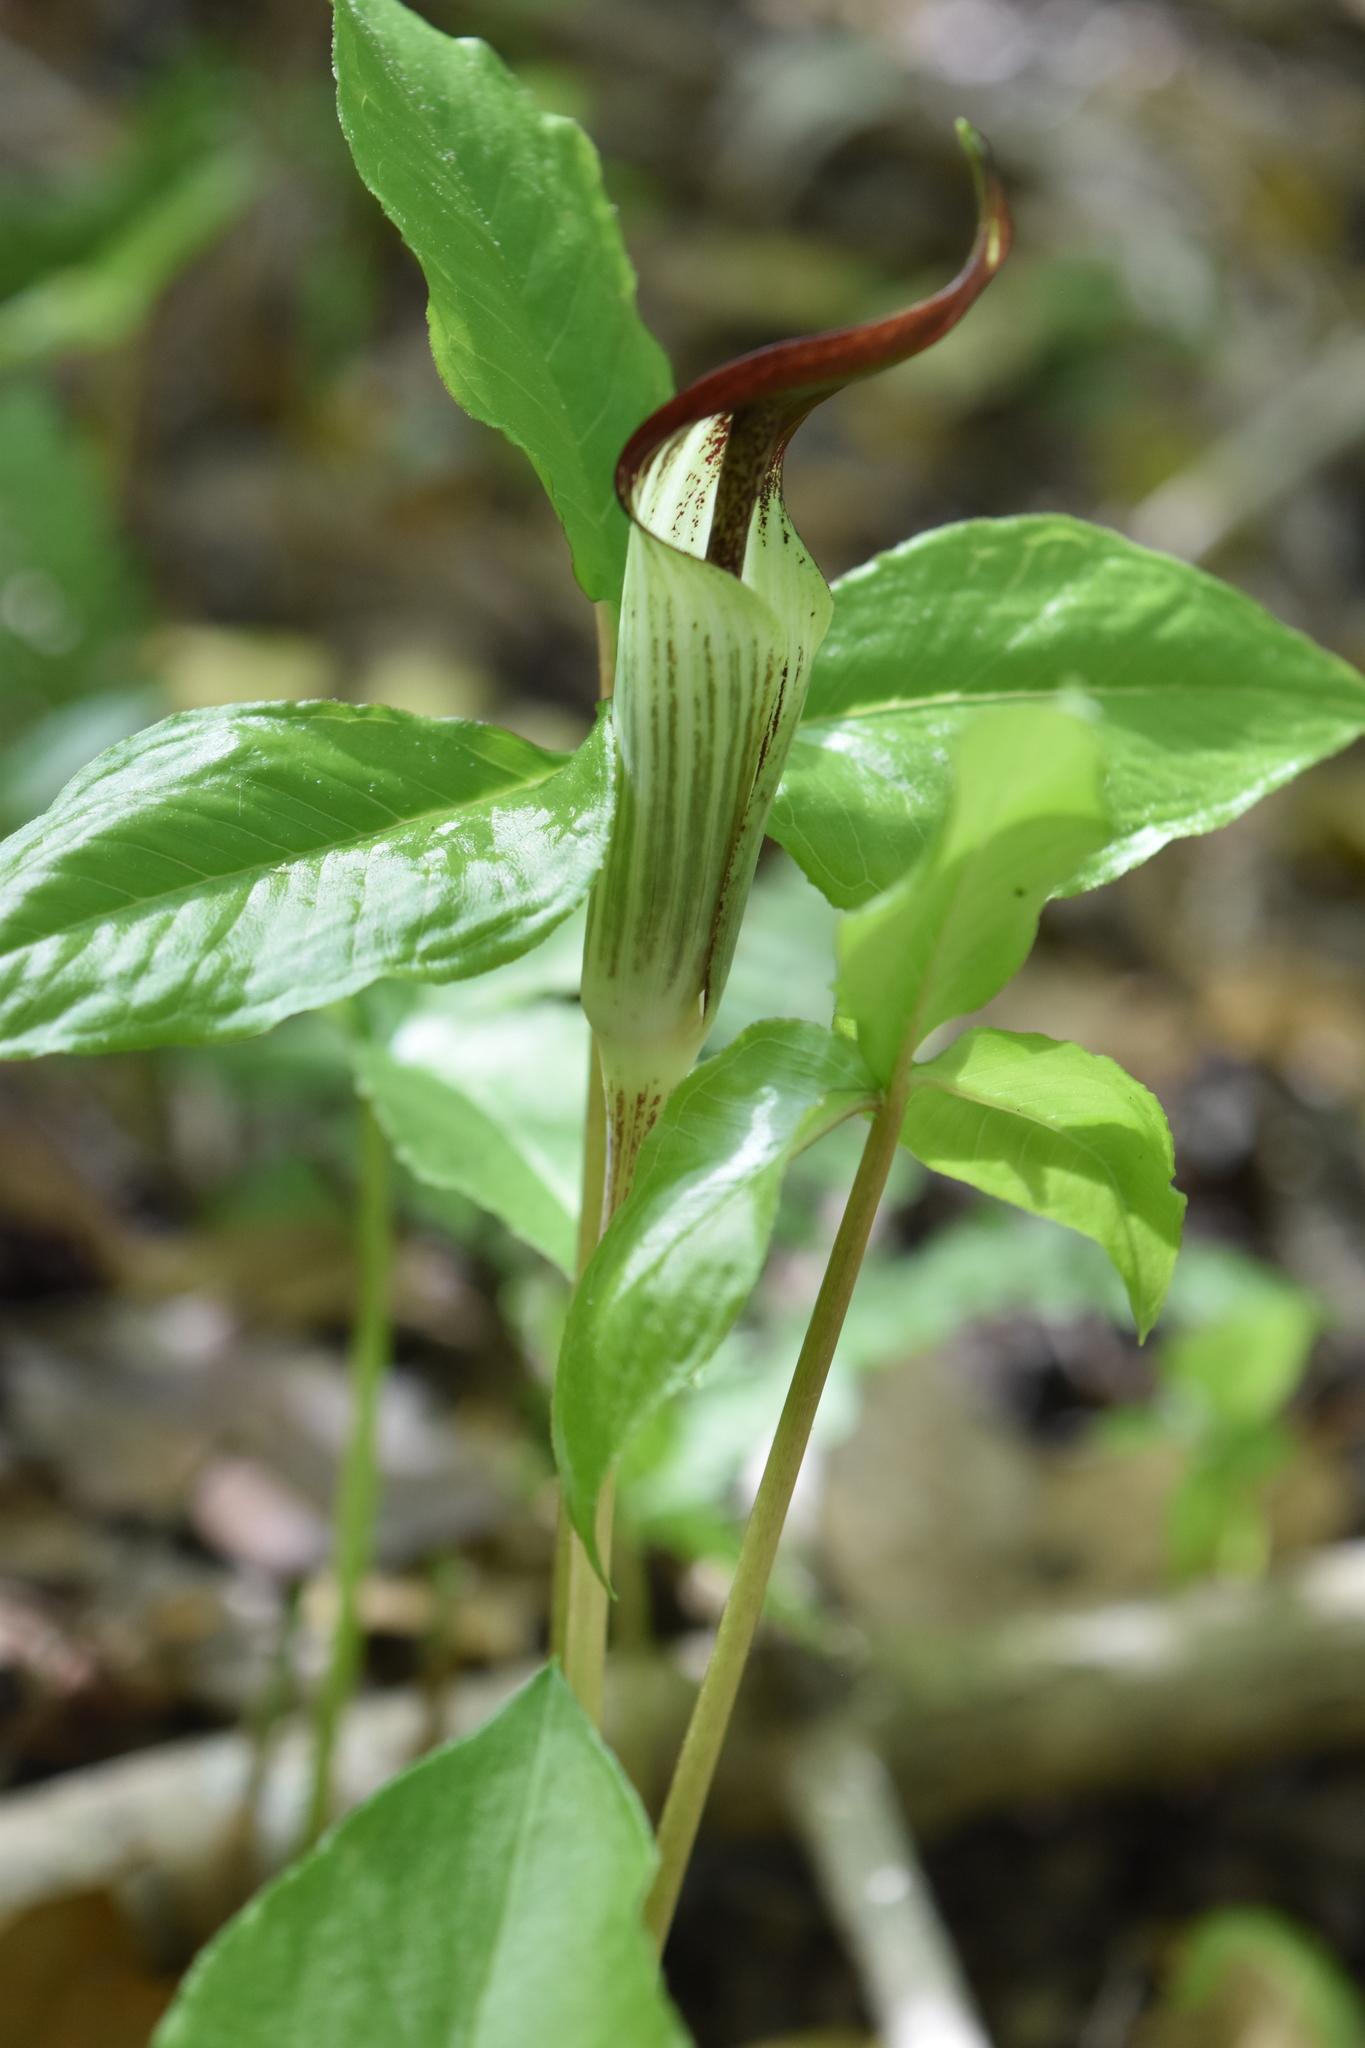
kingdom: Plantae
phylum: Tracheophyta
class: Liliopsida
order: Alismatales
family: Araceae
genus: Arisaema
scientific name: Arisaema triphyllum
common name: Jack-in-the-pulpit
